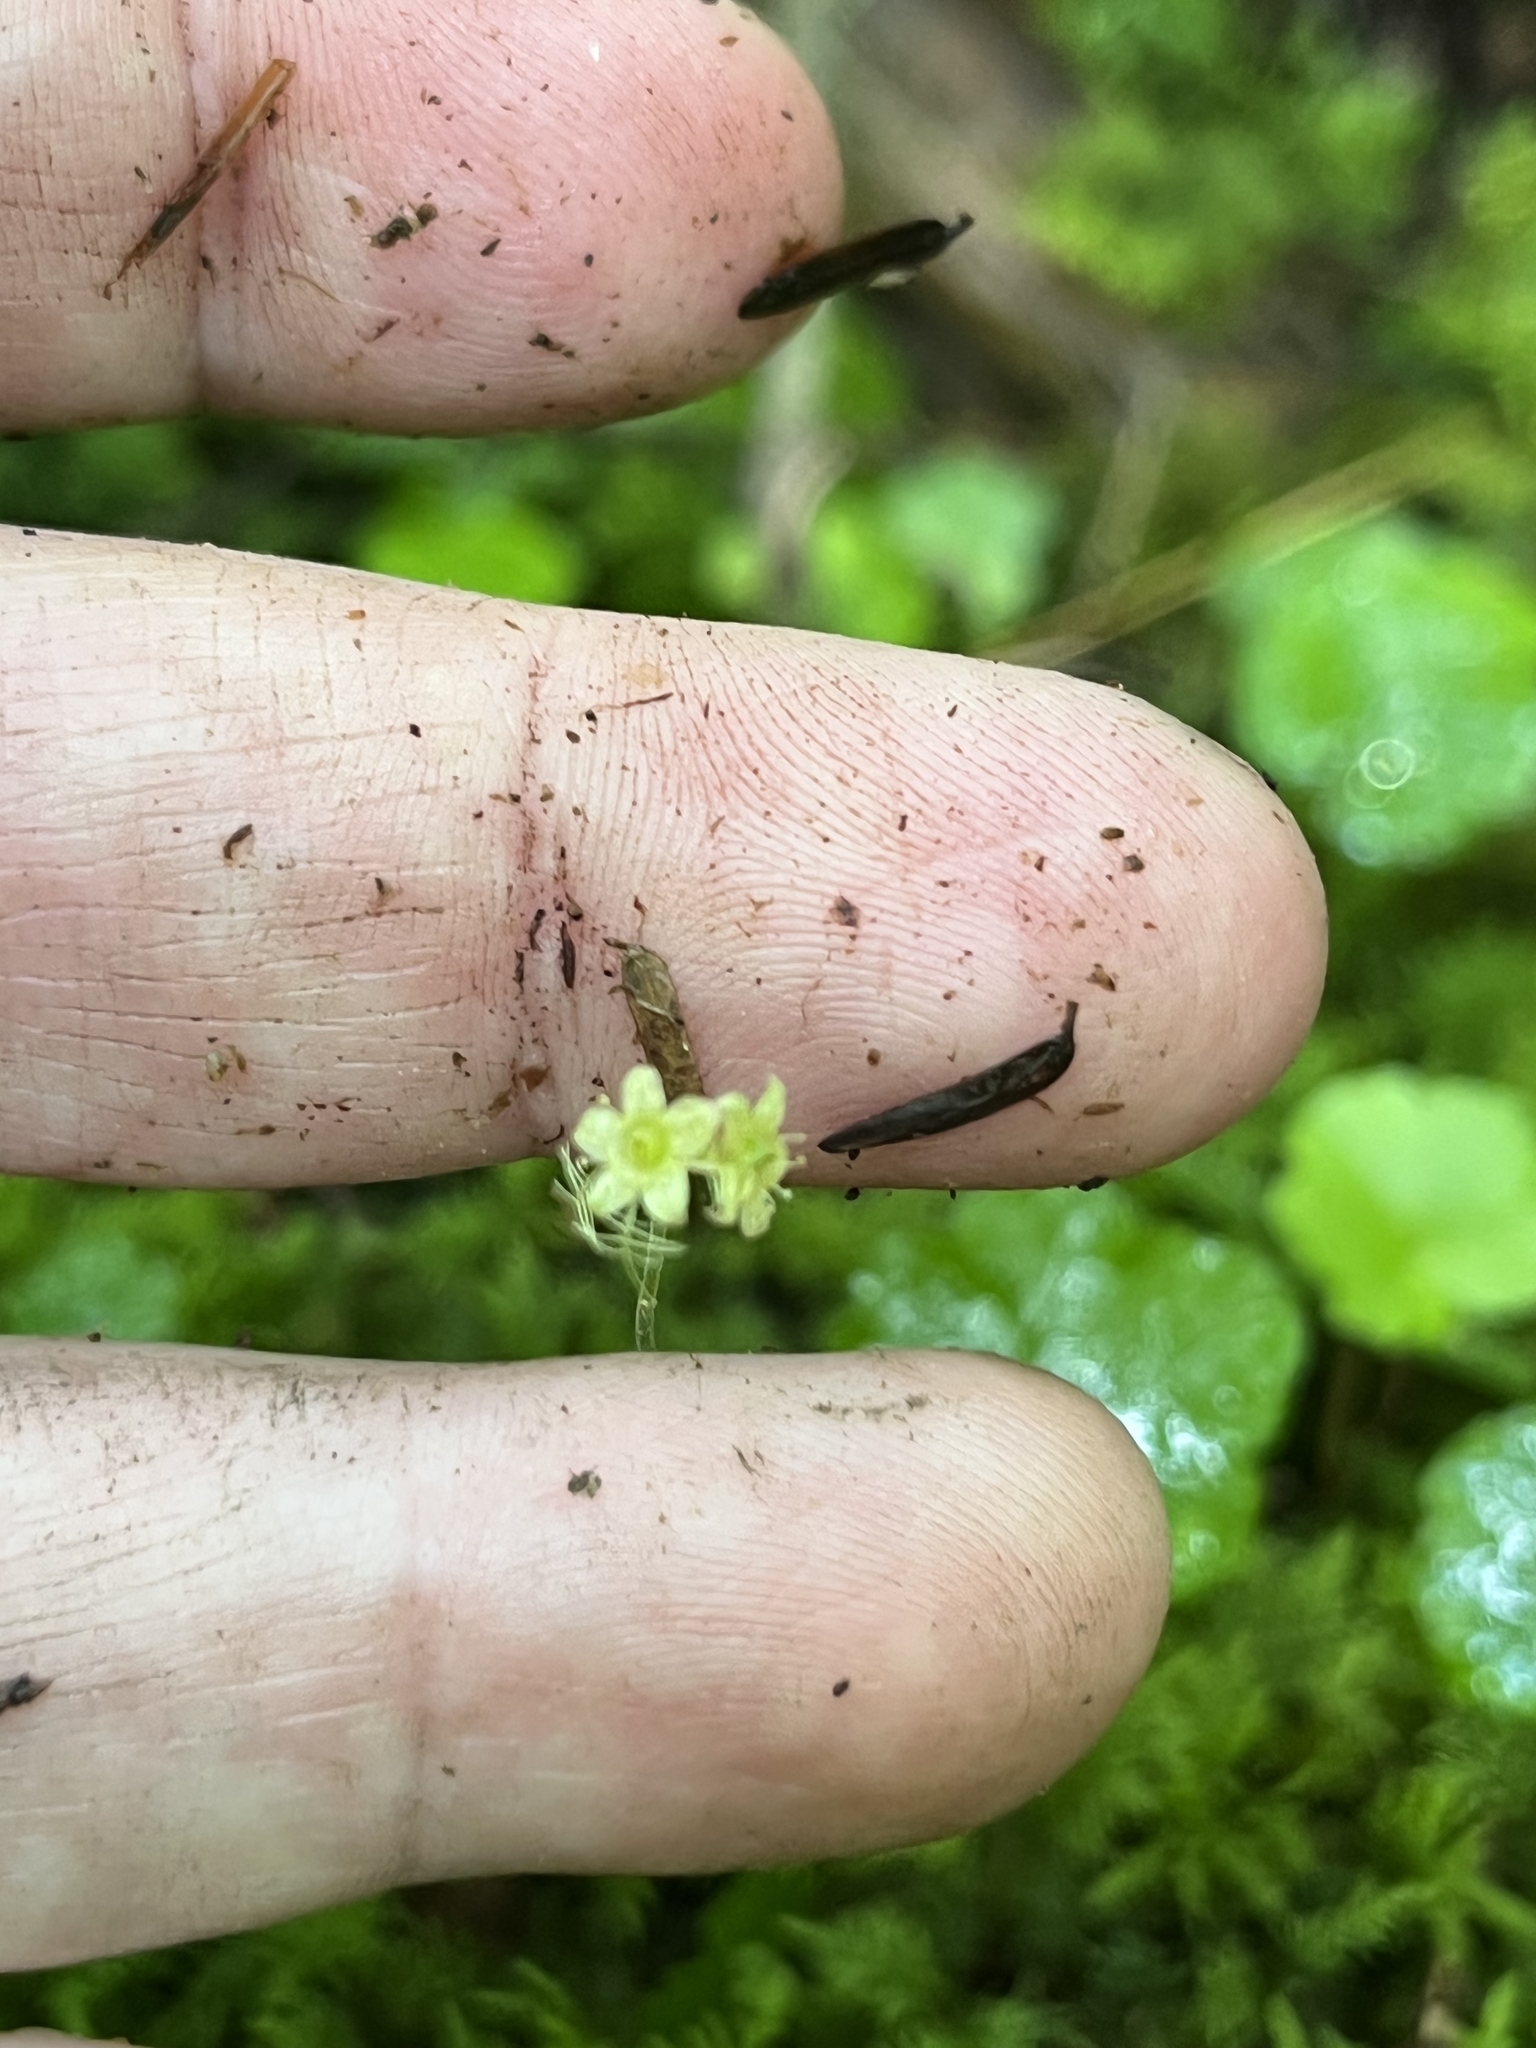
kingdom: Plantae
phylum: Tracheophyta
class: Magnoliopsida
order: Saxifragales
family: Saxifragaceae
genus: Mitella
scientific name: Mitella nuda
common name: Bare-stemmed bishop's-cap
